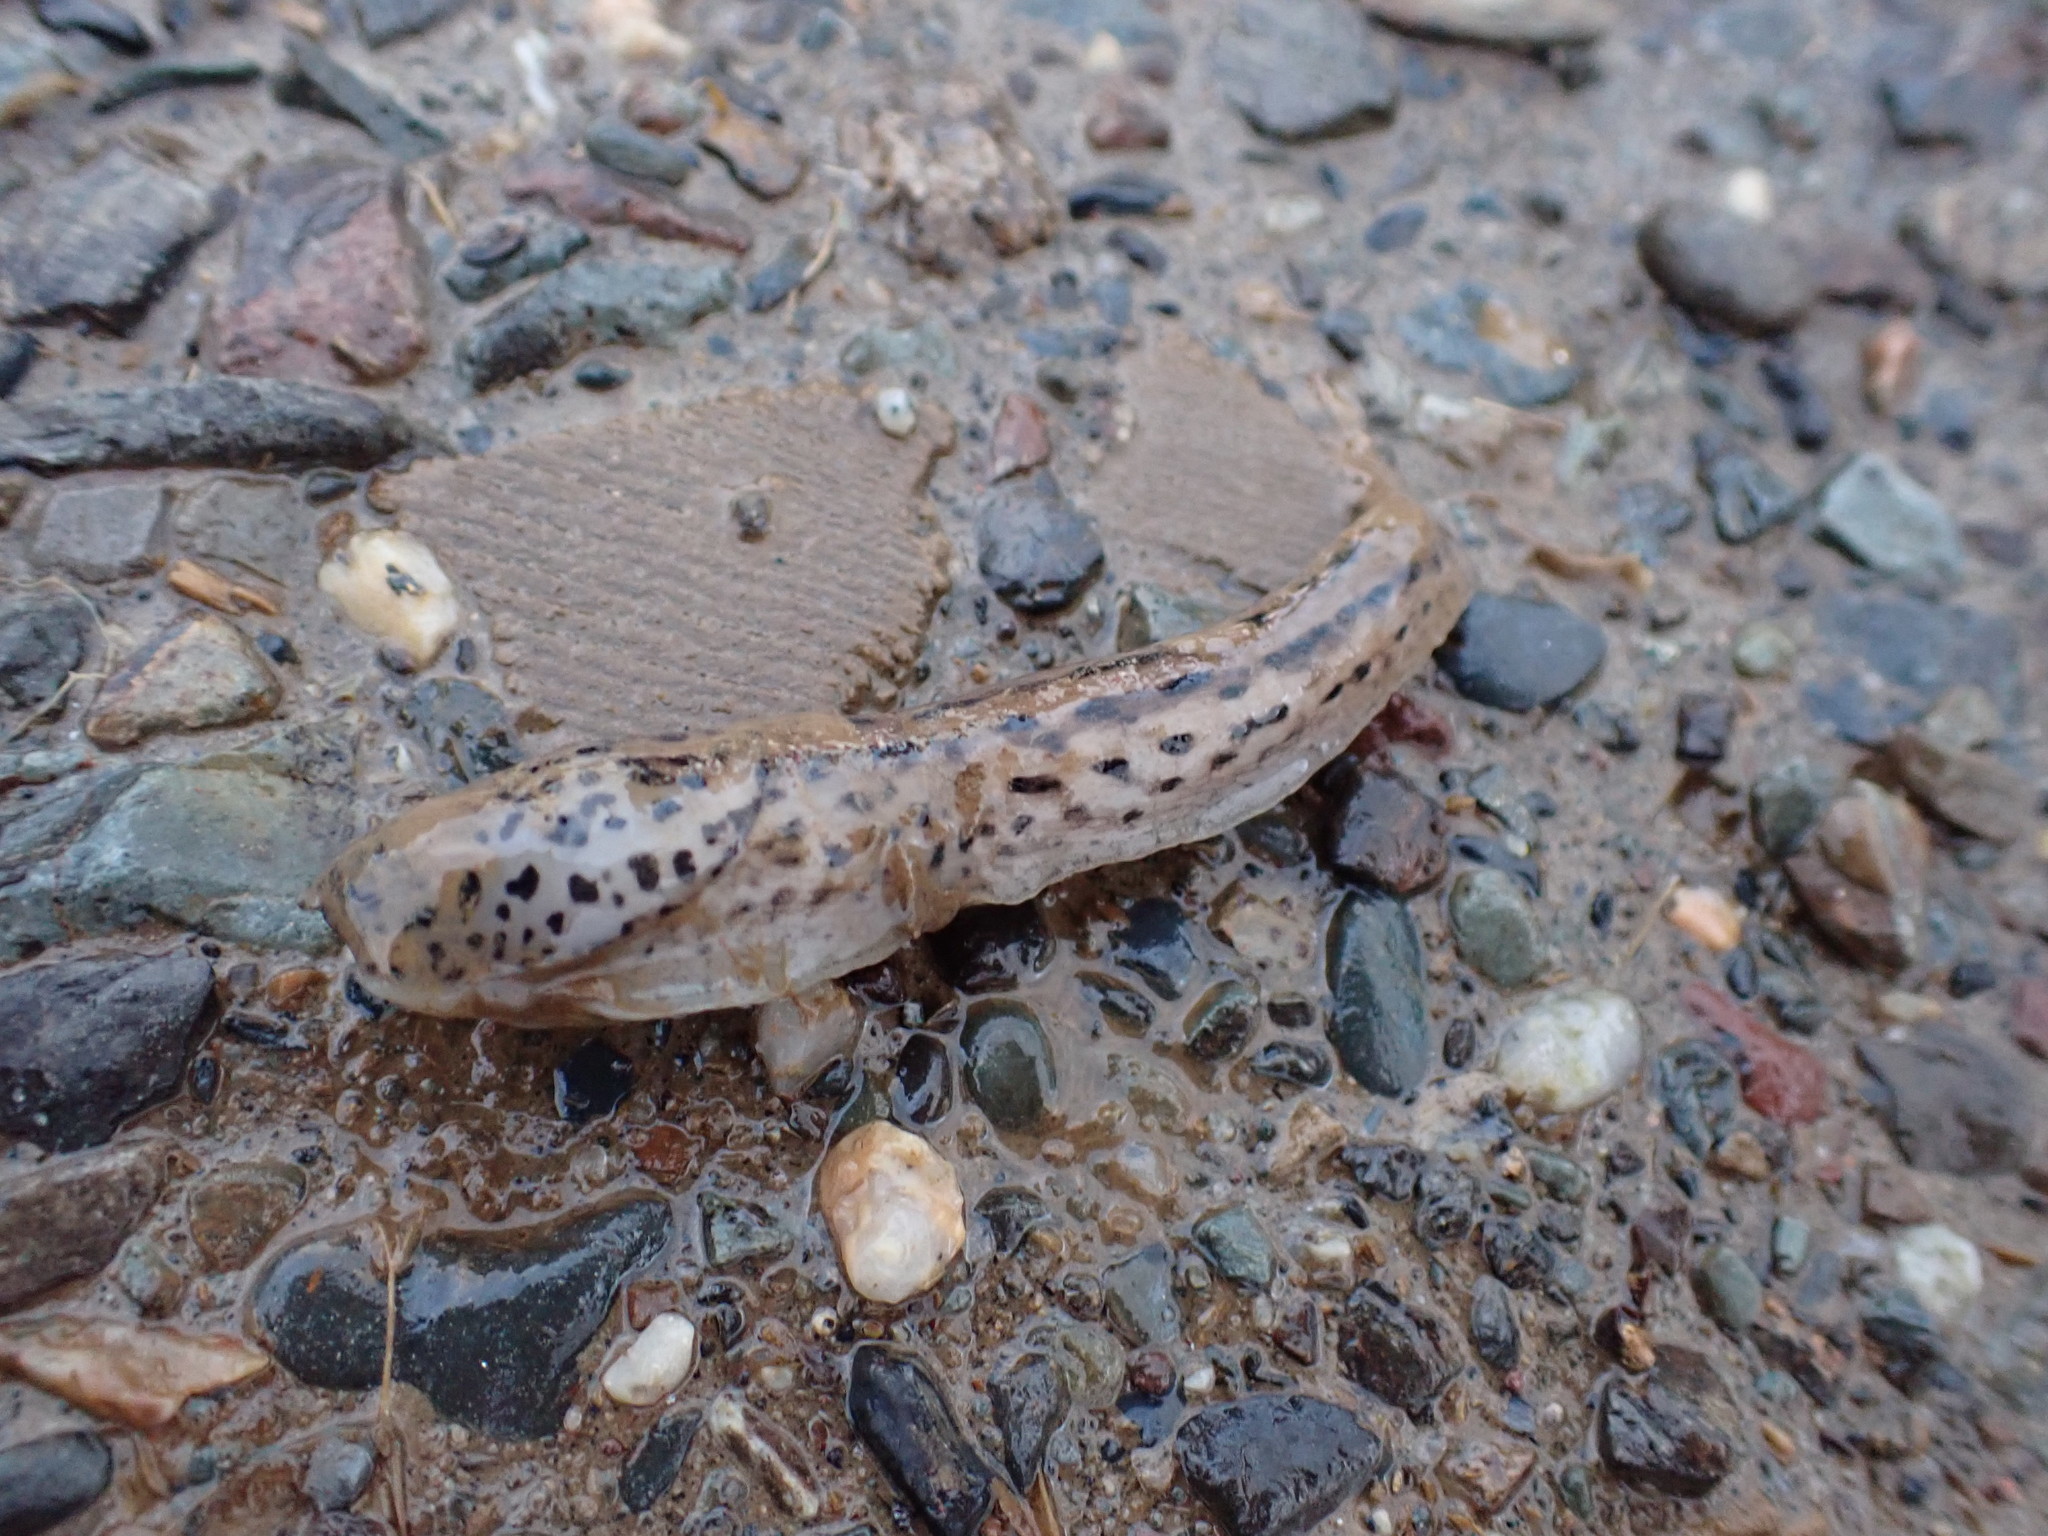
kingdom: Animalia
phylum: Mollusca
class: Gastropoda
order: Stylommatophora
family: Limacidae
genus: Limax
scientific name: Limax maximus
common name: Great grey slug
